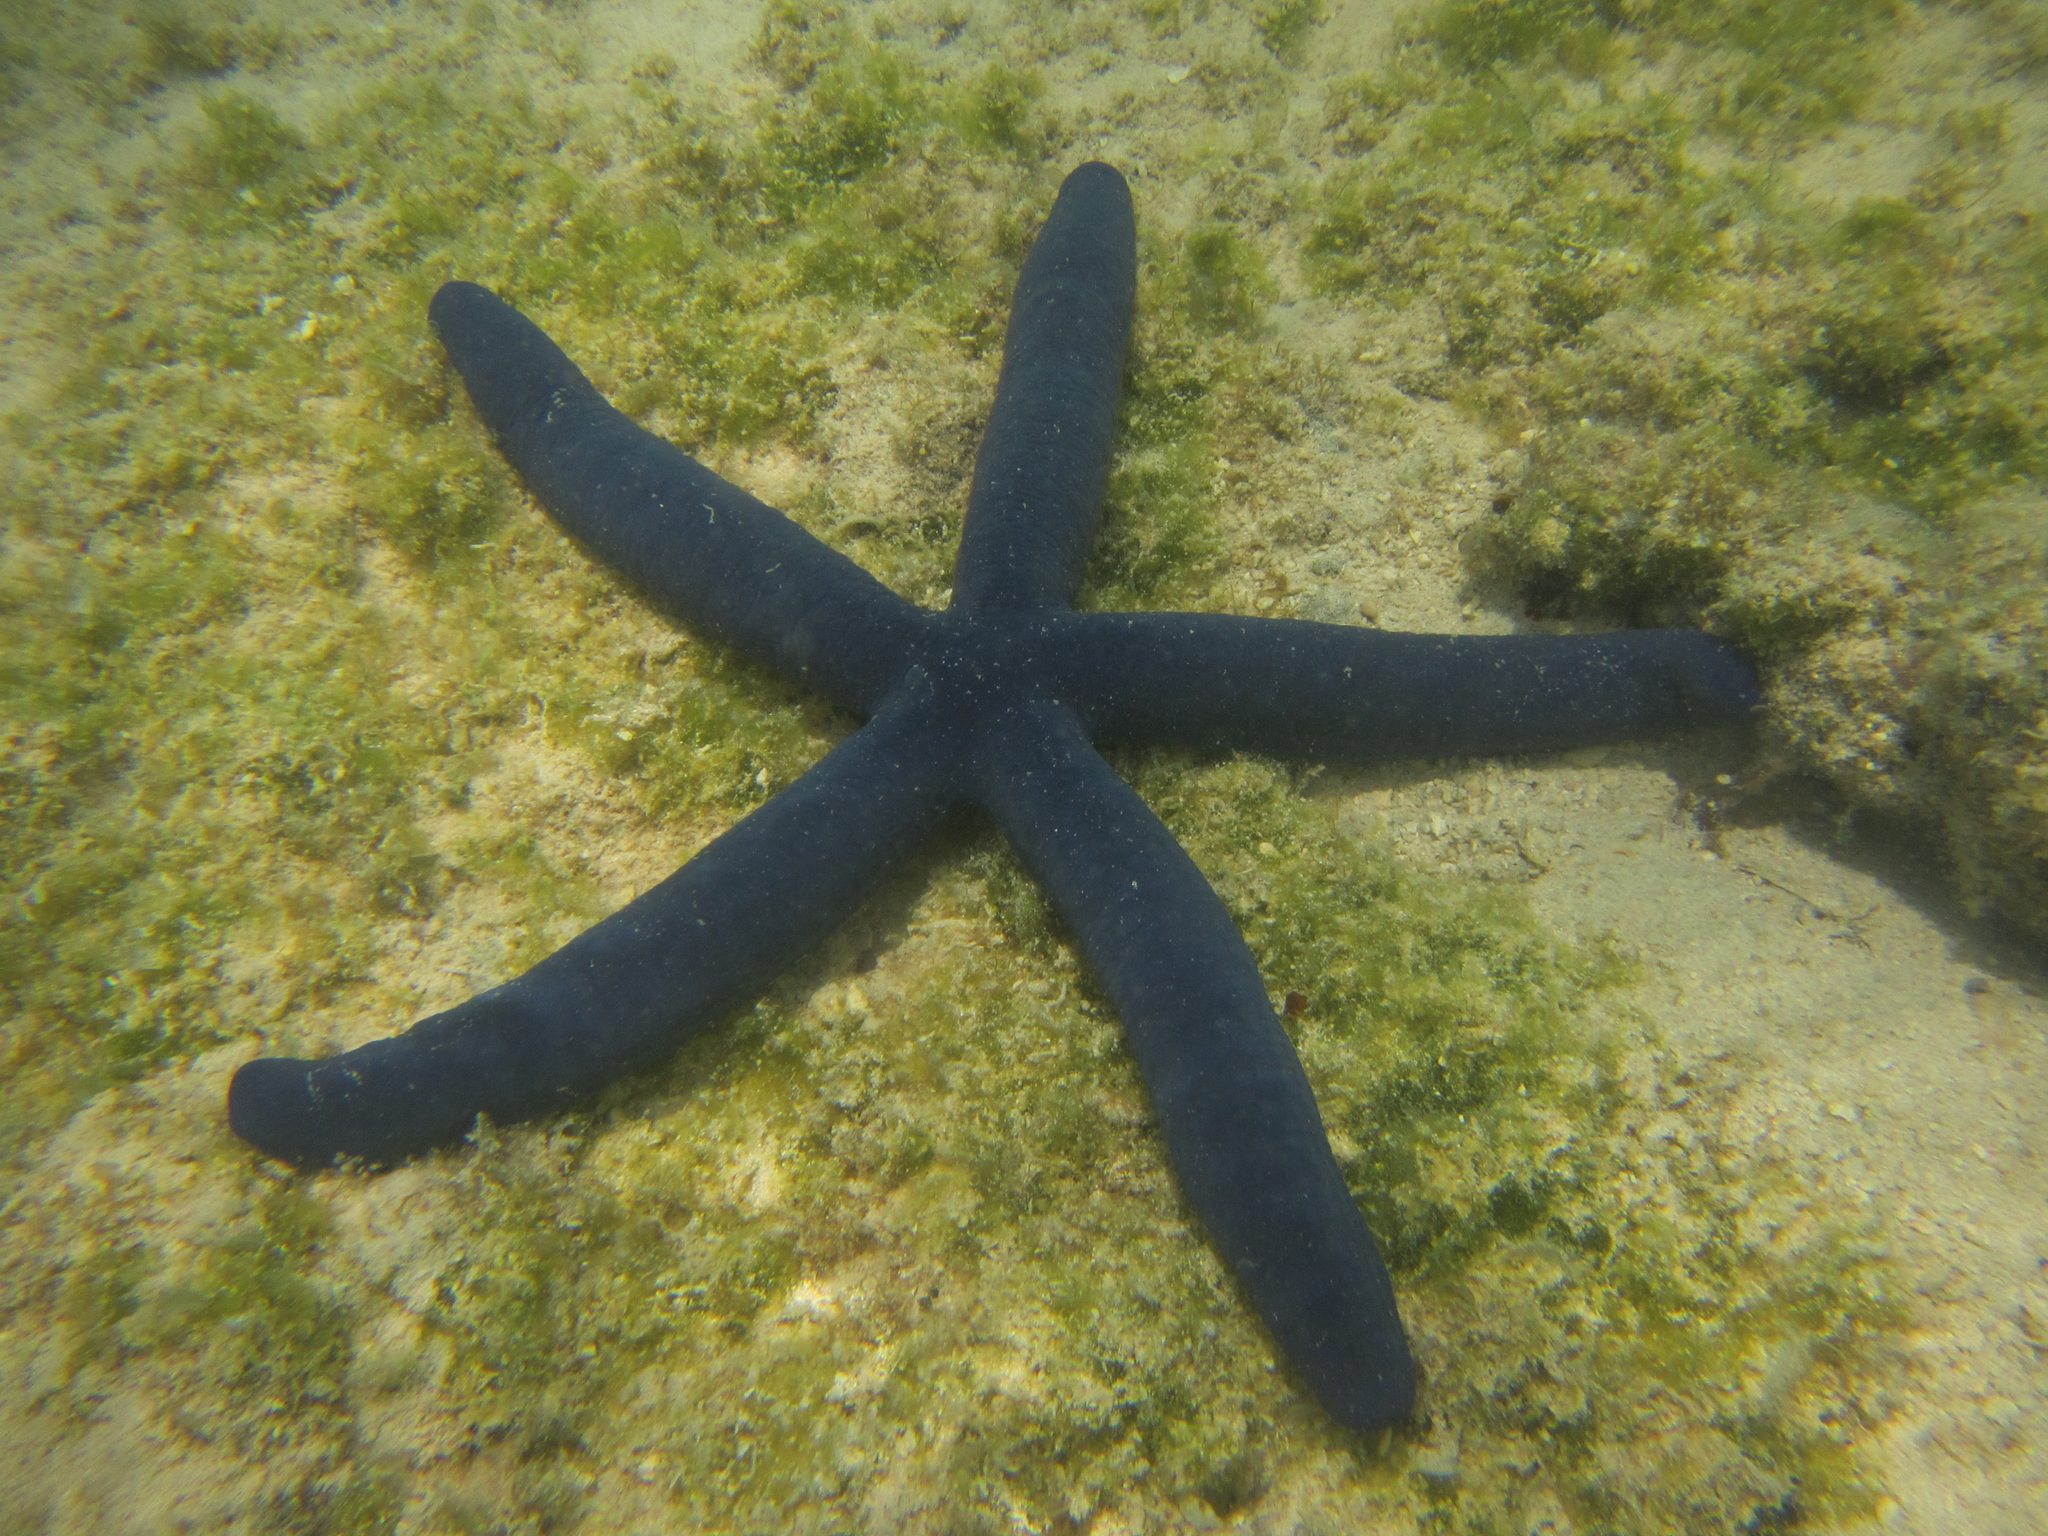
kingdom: Animalia
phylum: Echinodermata
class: Asteroidea
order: Valvatida
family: Ophidiasteridae
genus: Linckia
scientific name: Linckia laevigata
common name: Azure sea star
